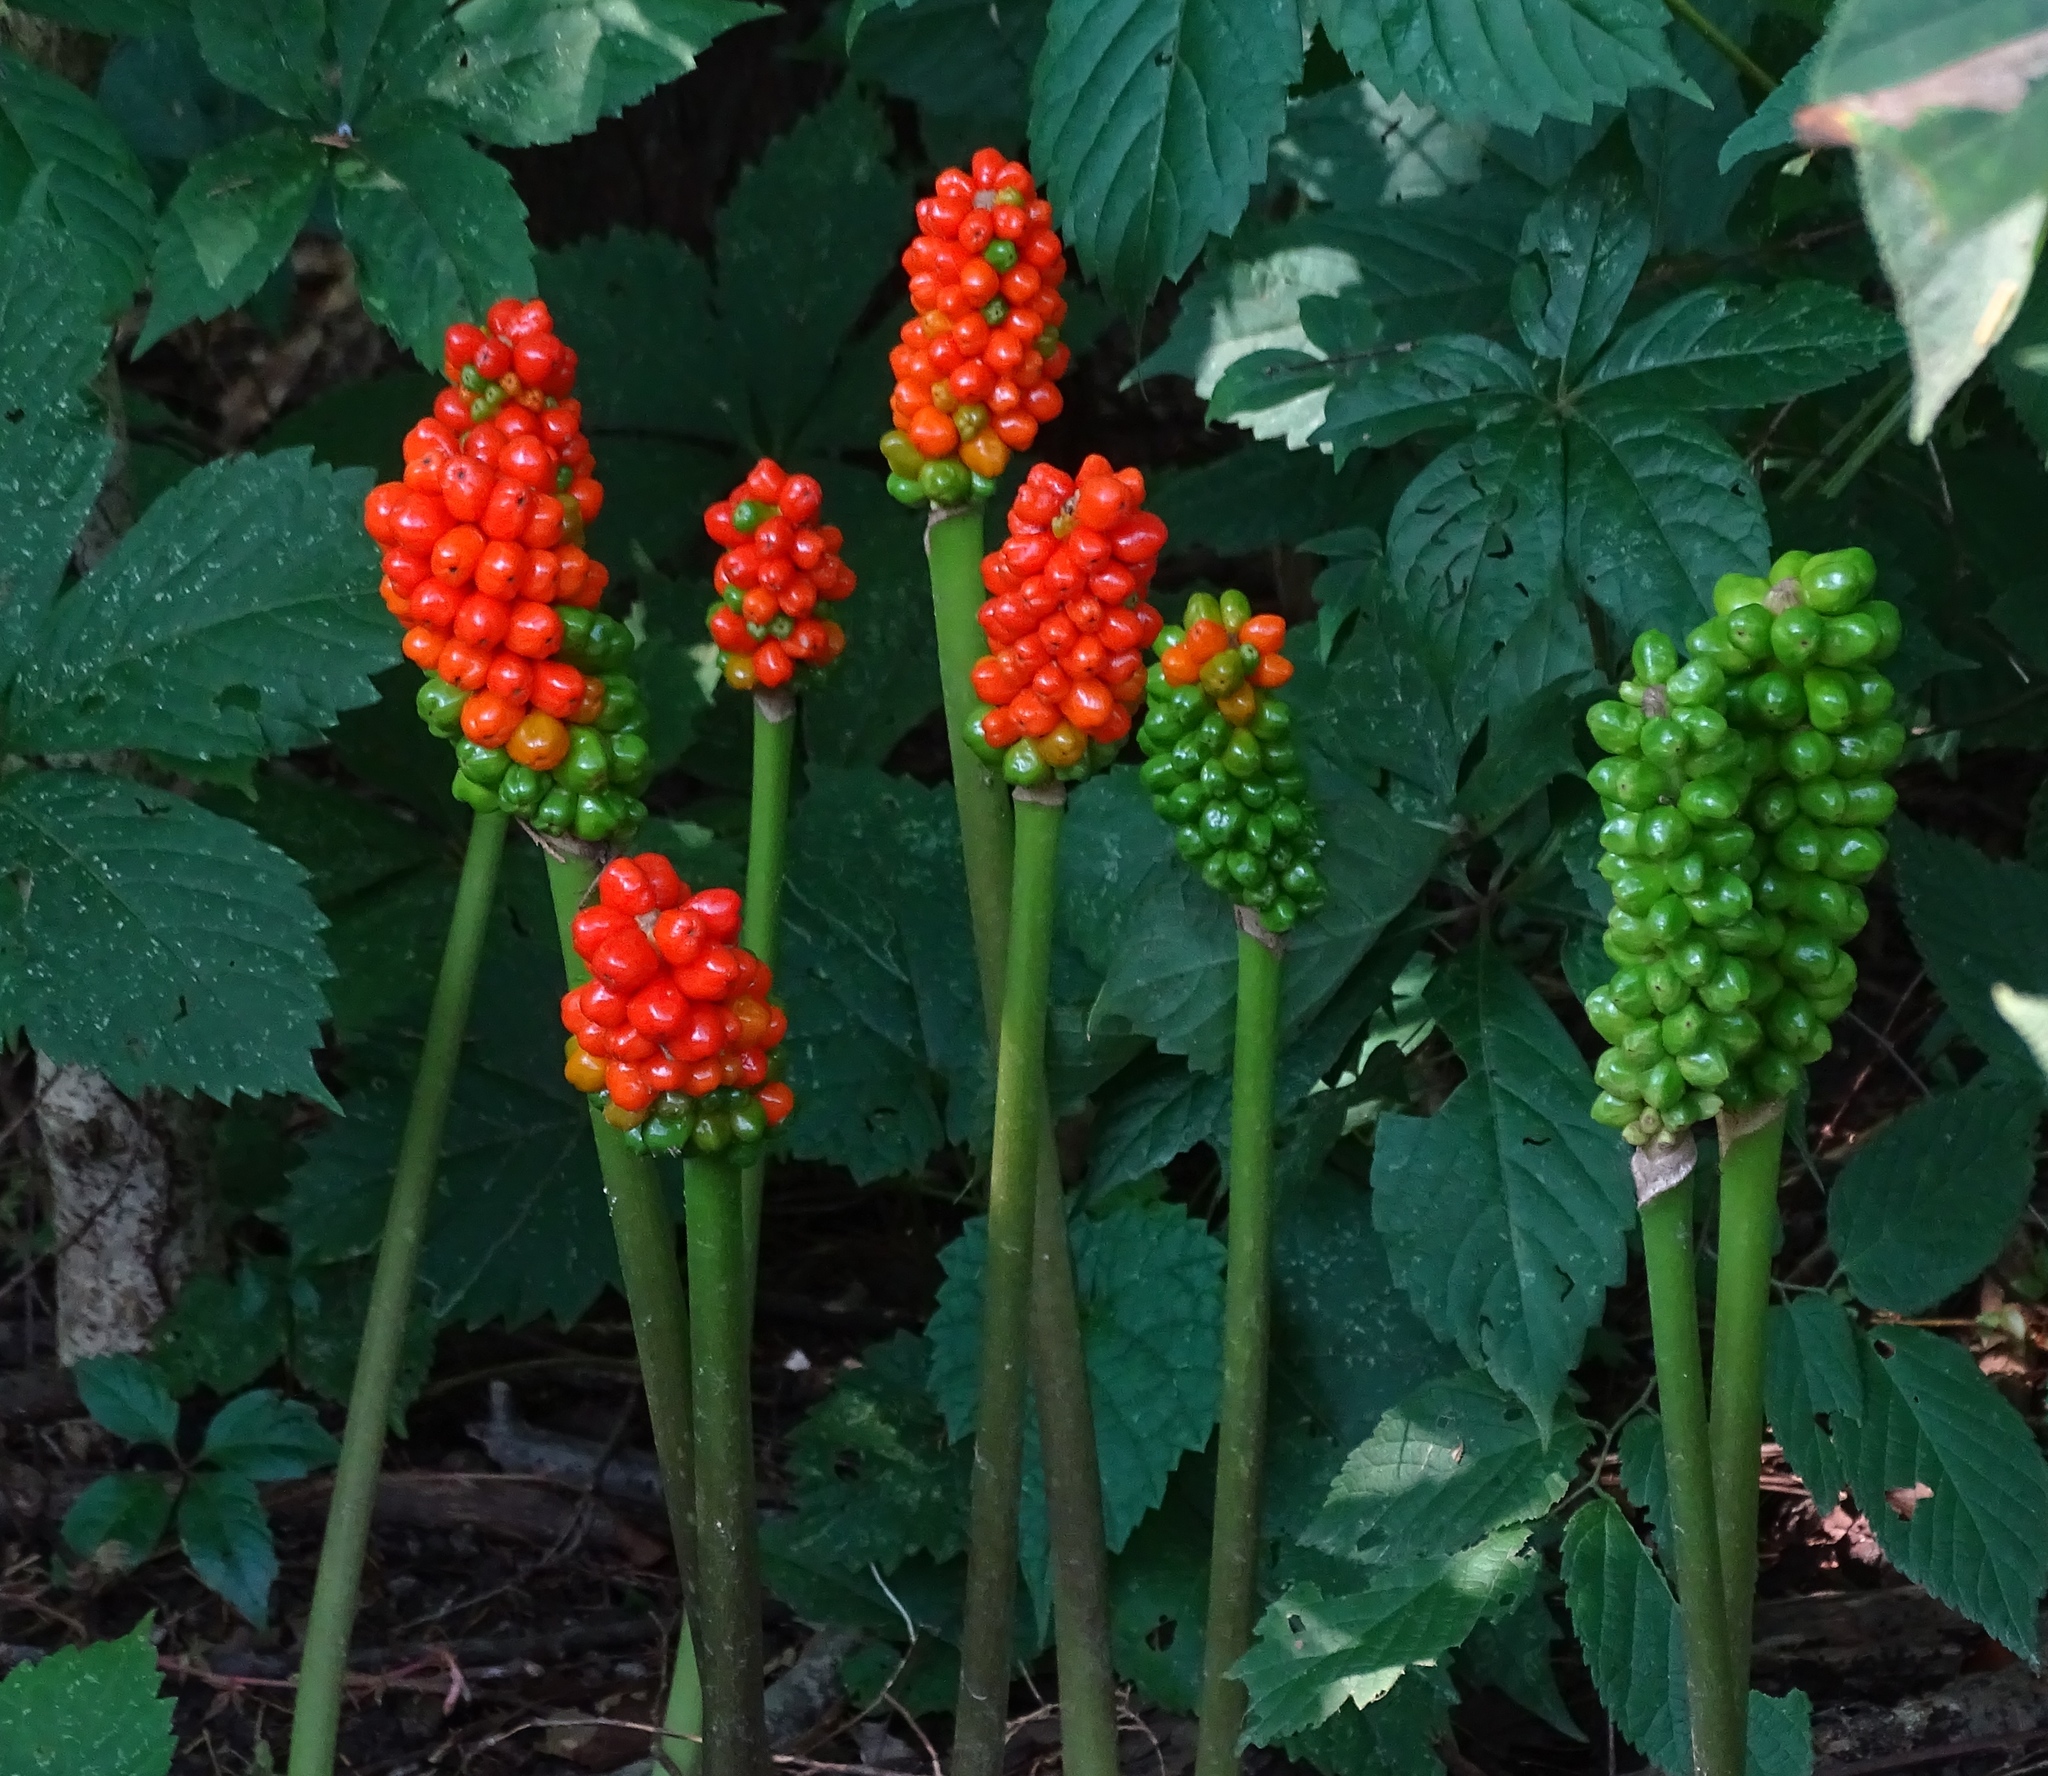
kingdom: Plantae
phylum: Tracheophyta
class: Liliopsida
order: Alismatales
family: Araceae
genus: Arum
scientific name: Arum italicum
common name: Italian lords-and-ladies
